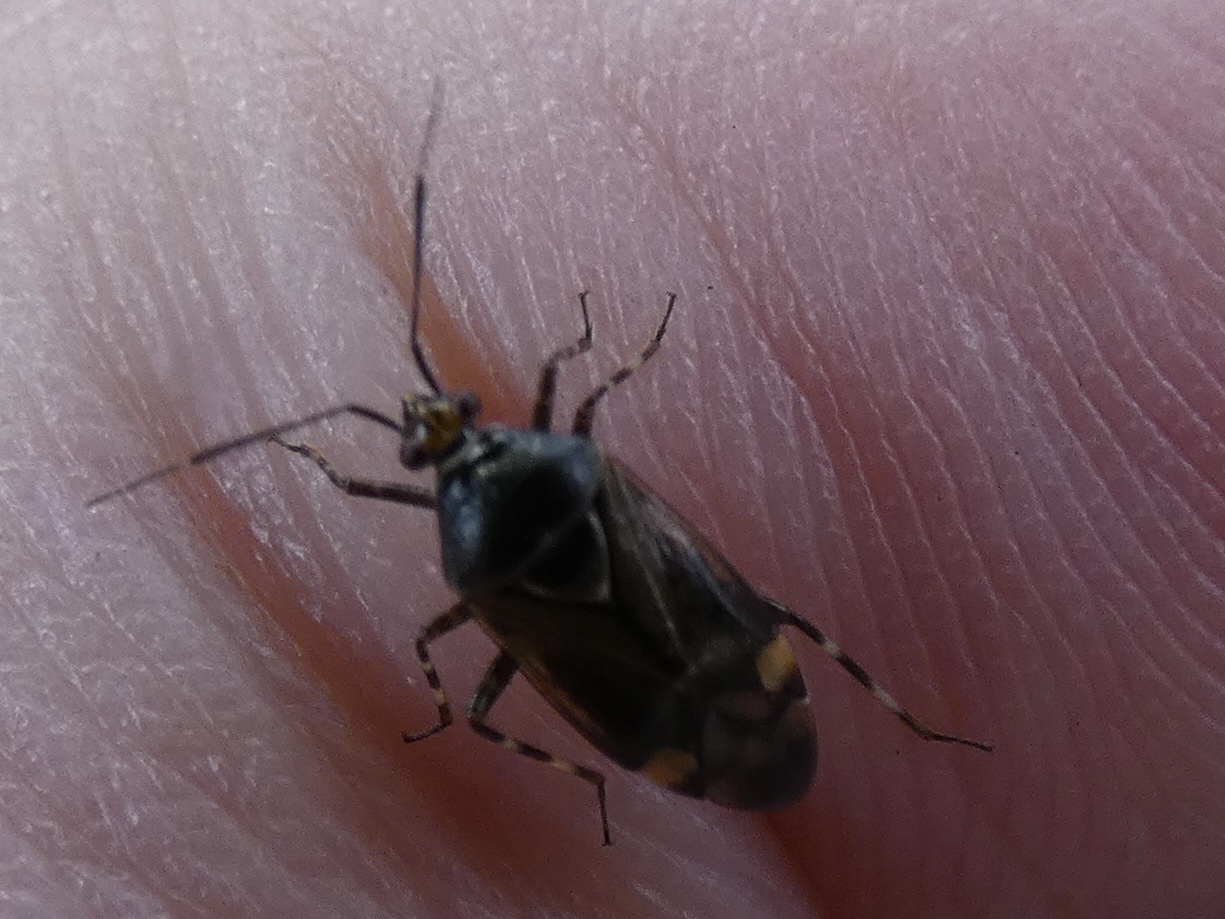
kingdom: Animalia
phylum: Arthropoda
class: Insecta
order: Hemiptera
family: Miridae
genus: Deraeocoris
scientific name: Deraeocoris flavilinea
